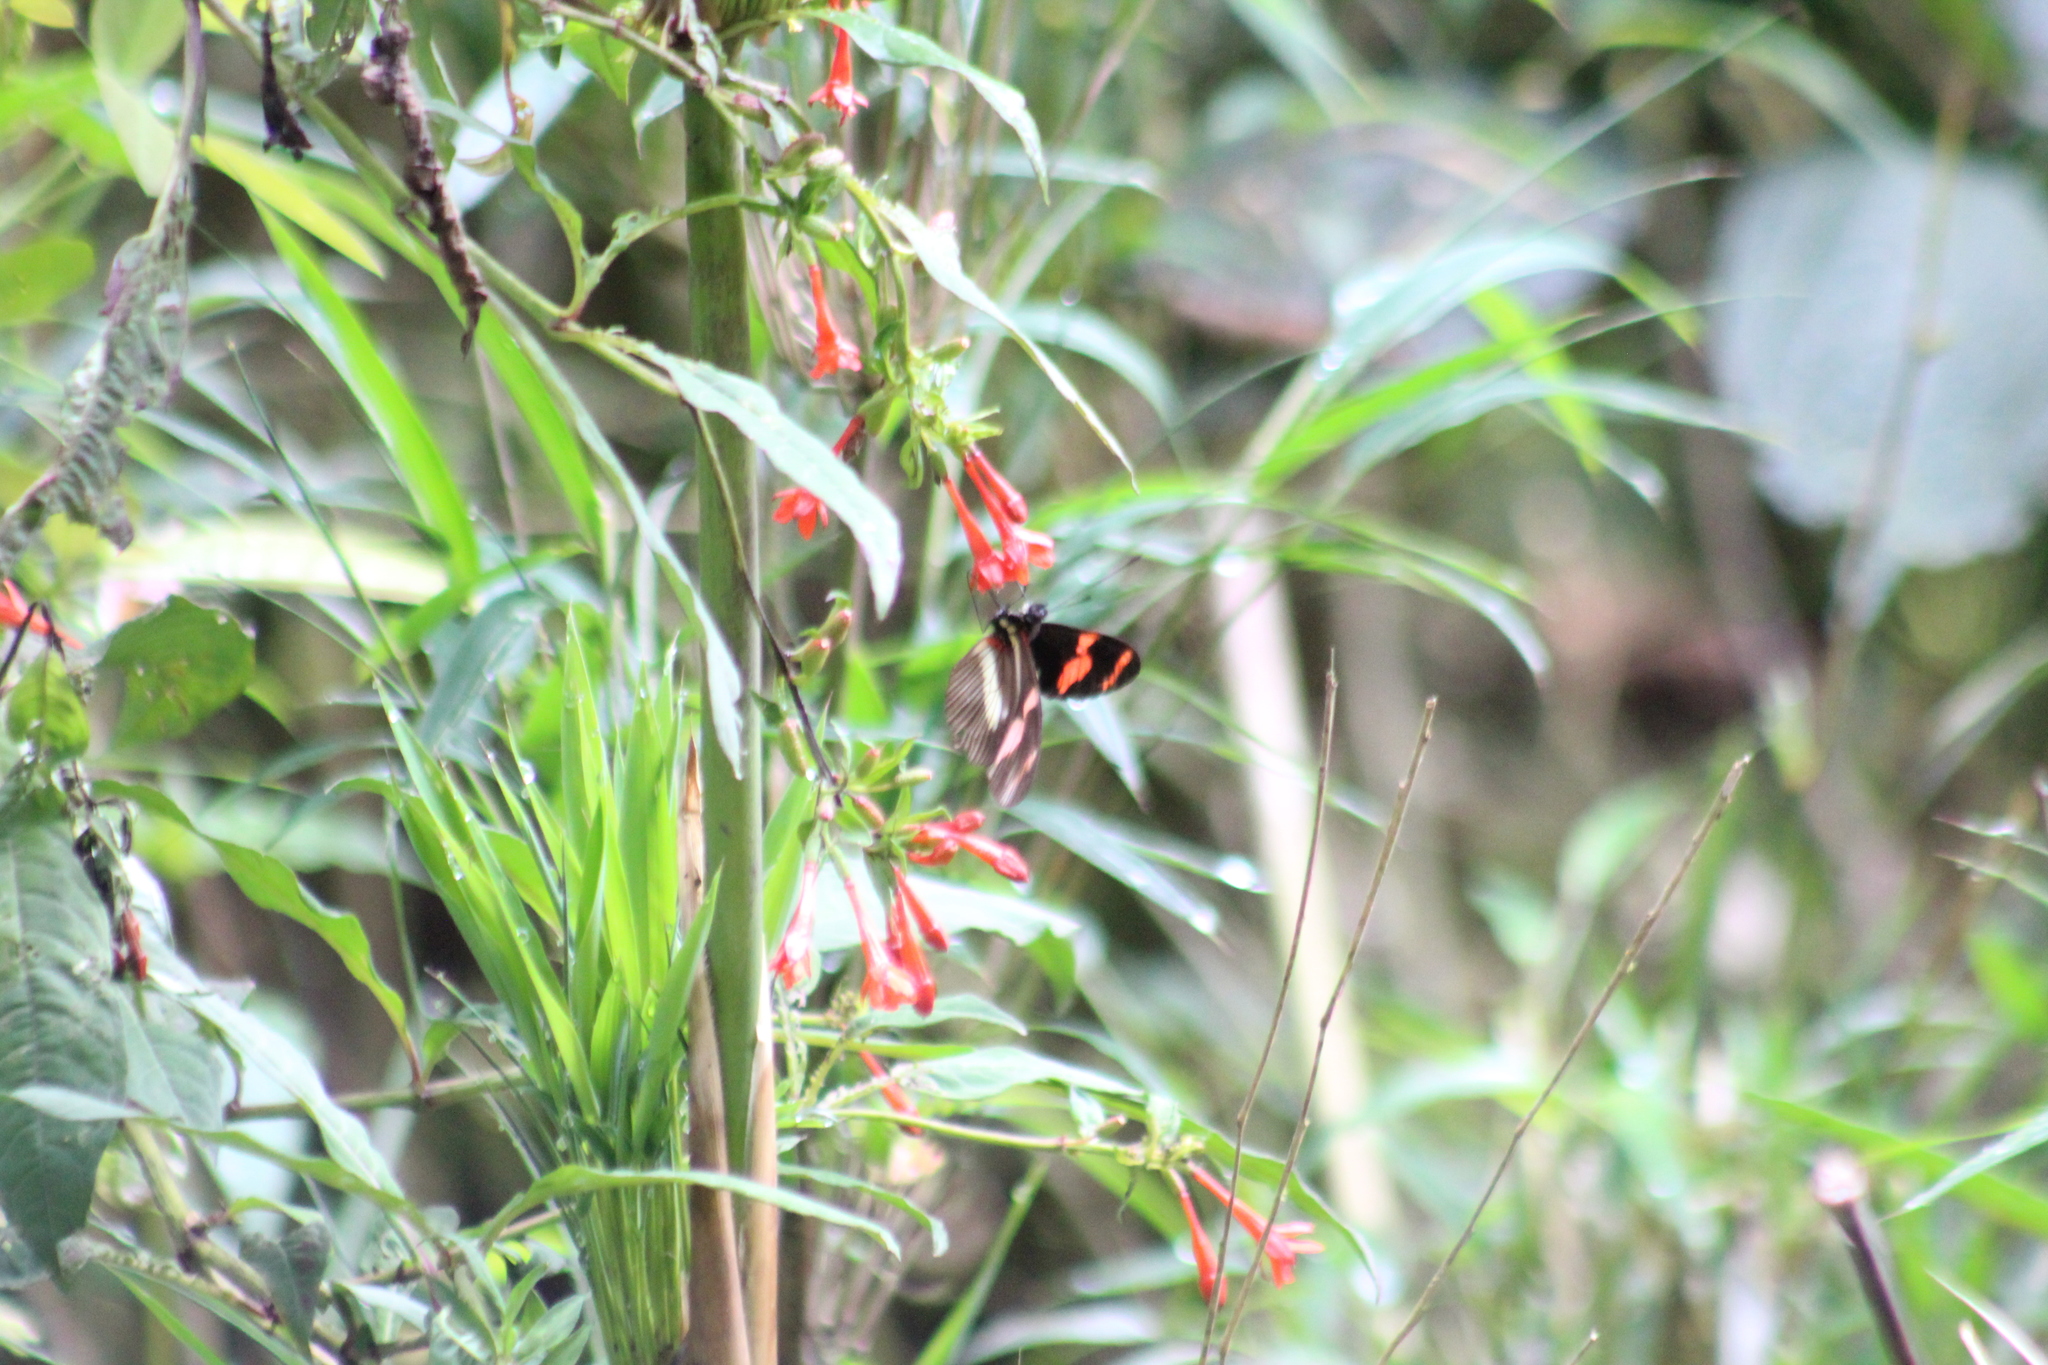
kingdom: Animalia
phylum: Arthropoda
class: Insecta
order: Lepidoptera
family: Nymphalidae
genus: Heliconius
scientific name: Heliconius telesiphe
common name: Telesiphe longwing
